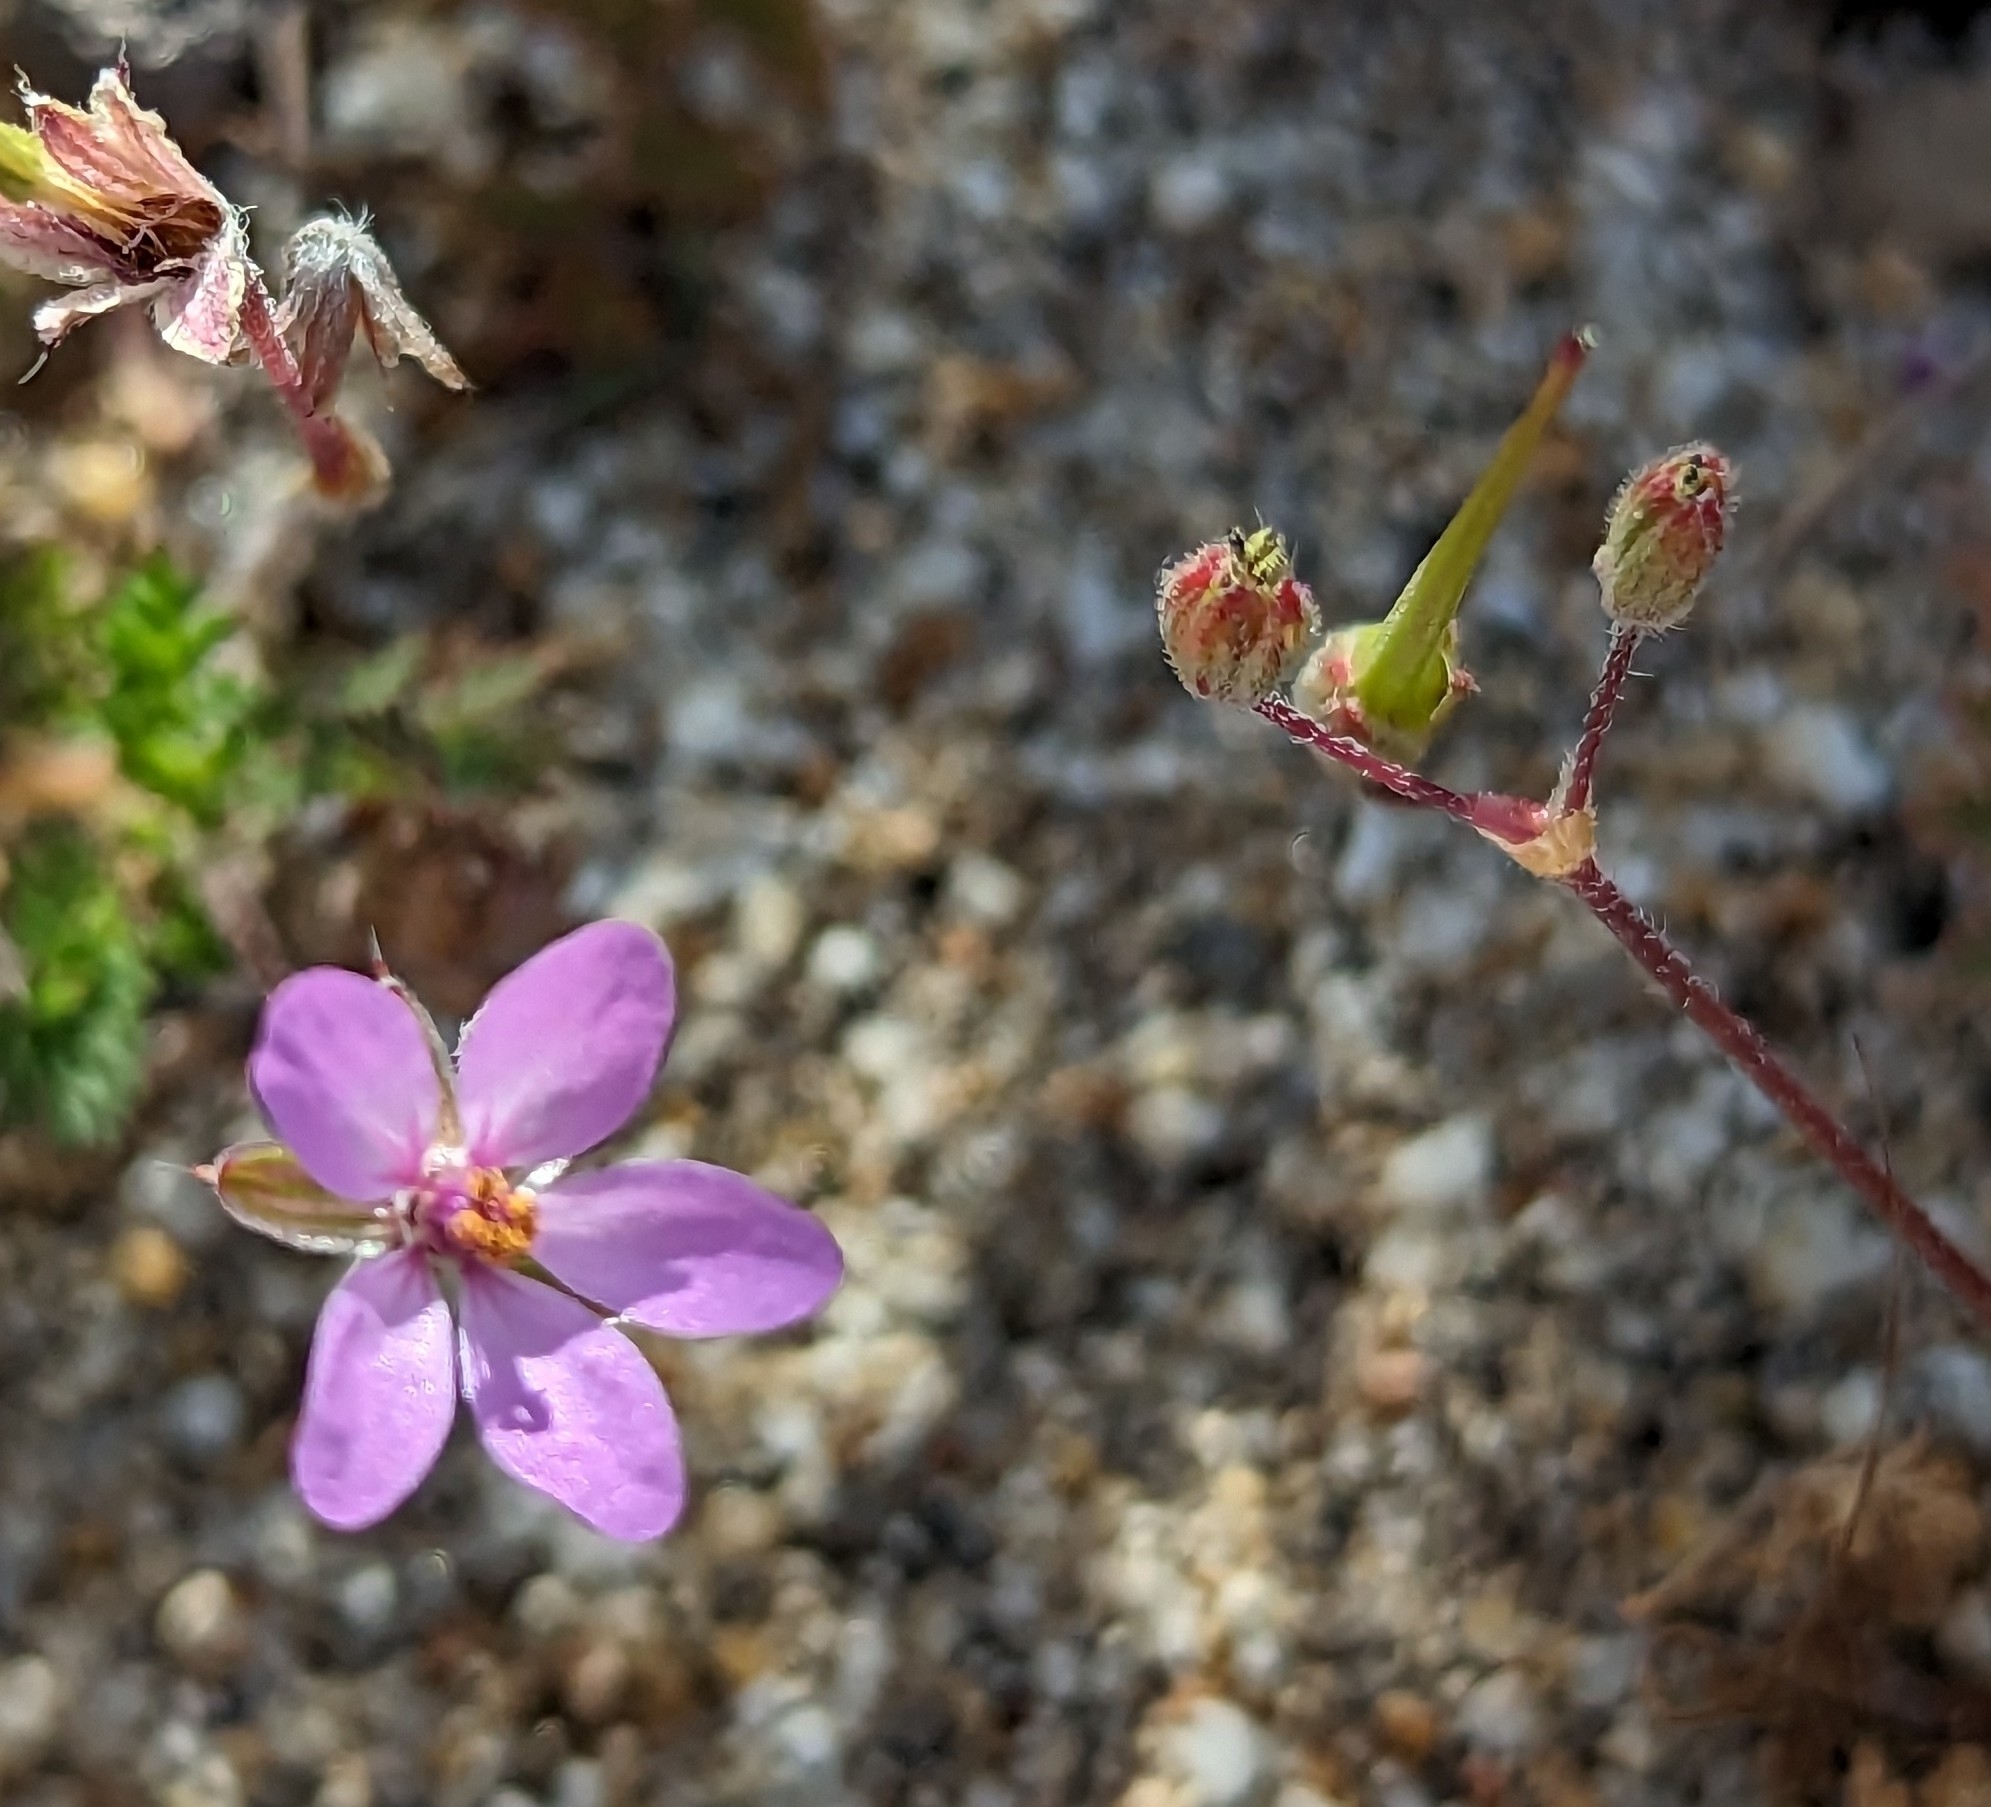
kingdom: Plantae
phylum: Tracheophyta
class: Magnoliopsida
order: Geraniales
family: Geraniaceae
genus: Erodium
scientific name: Erodium cicutarium
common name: Common stork's-bill
